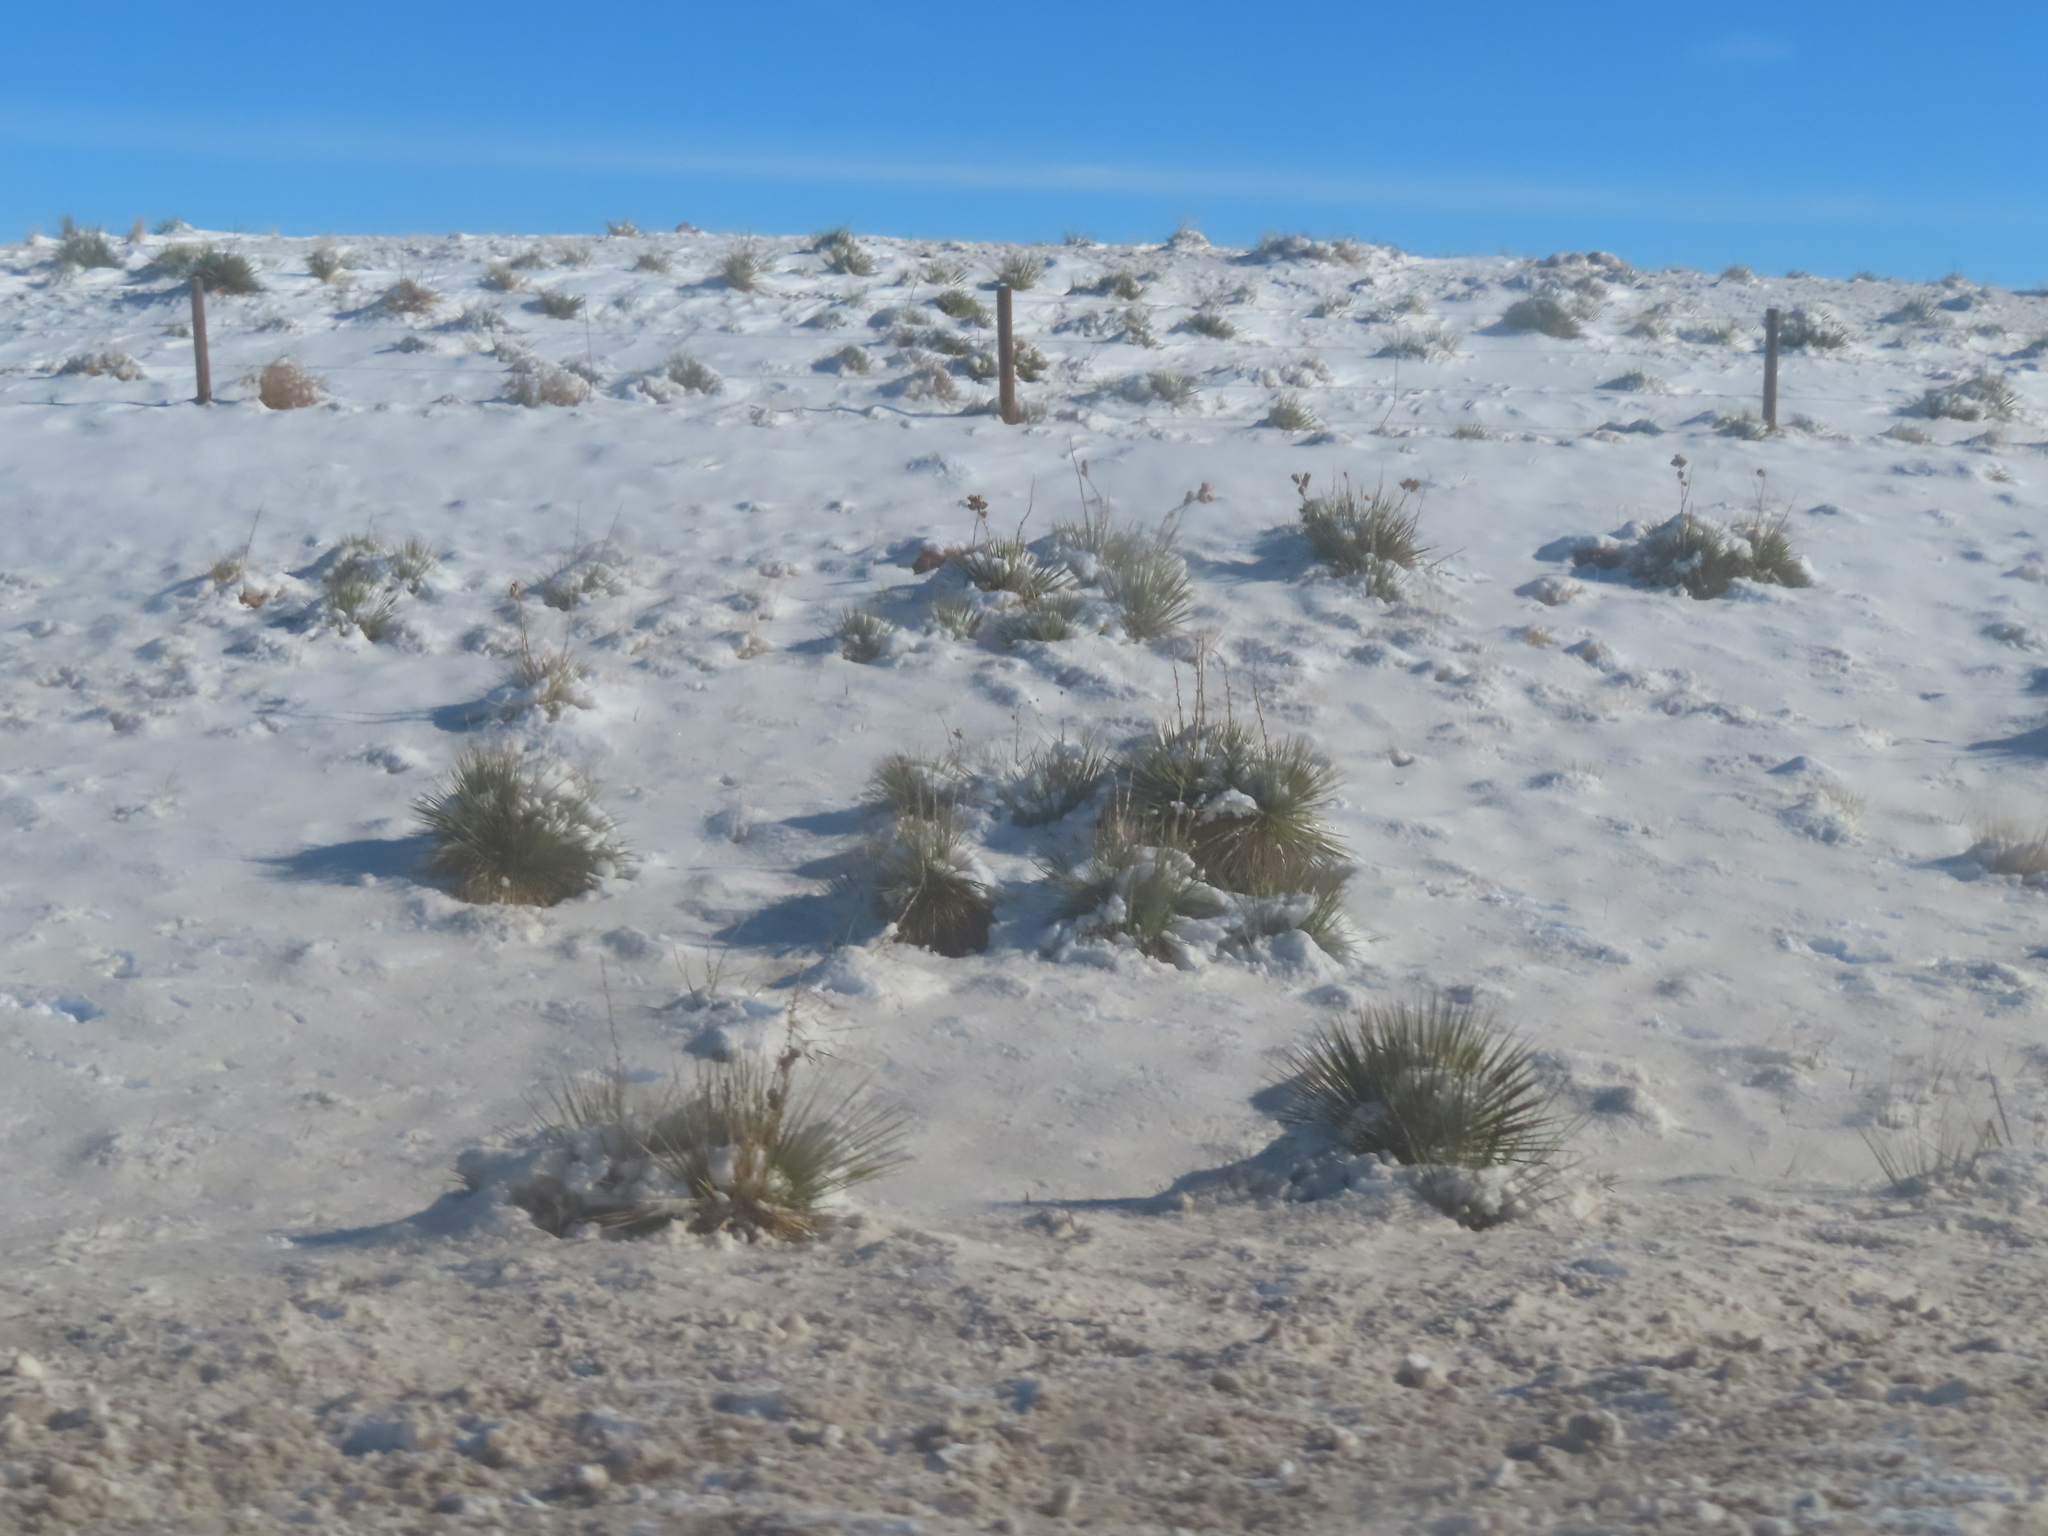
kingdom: Plantae
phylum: Tracheophyta
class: Liliopsida
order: Asparagales
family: Asparagaceae
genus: Yucca
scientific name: Yucca glauca
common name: Great plains yucca
